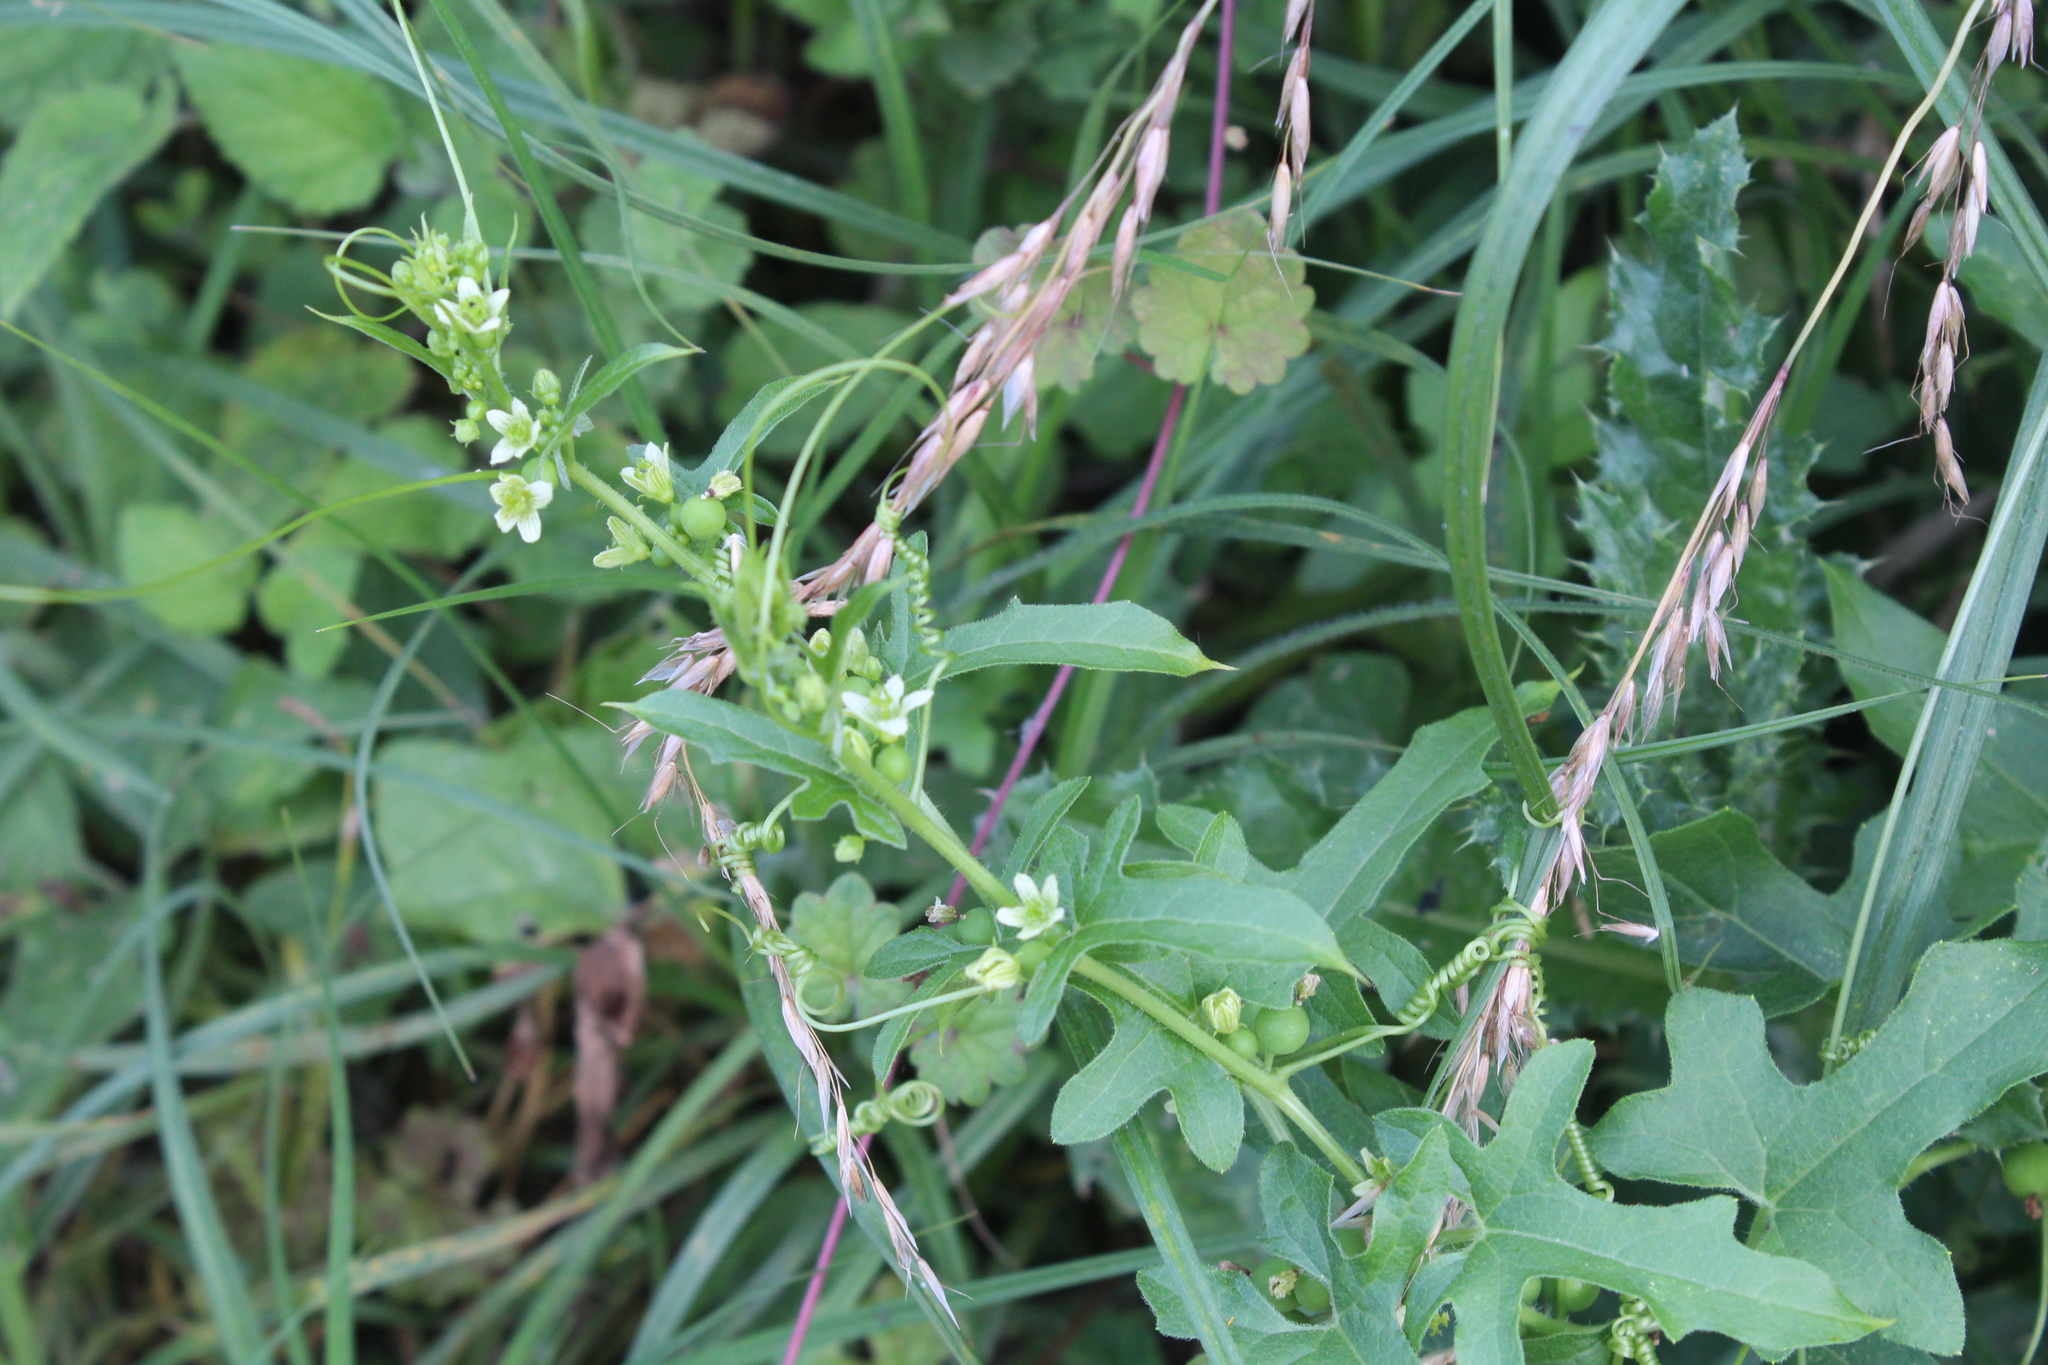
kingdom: Plantae
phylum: Tracheophyta
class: Magnoliopsida
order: Cucurbitales
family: Cucurbitaceae
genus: Bryonia
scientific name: Bryonia cretica
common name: Cretan bryony
